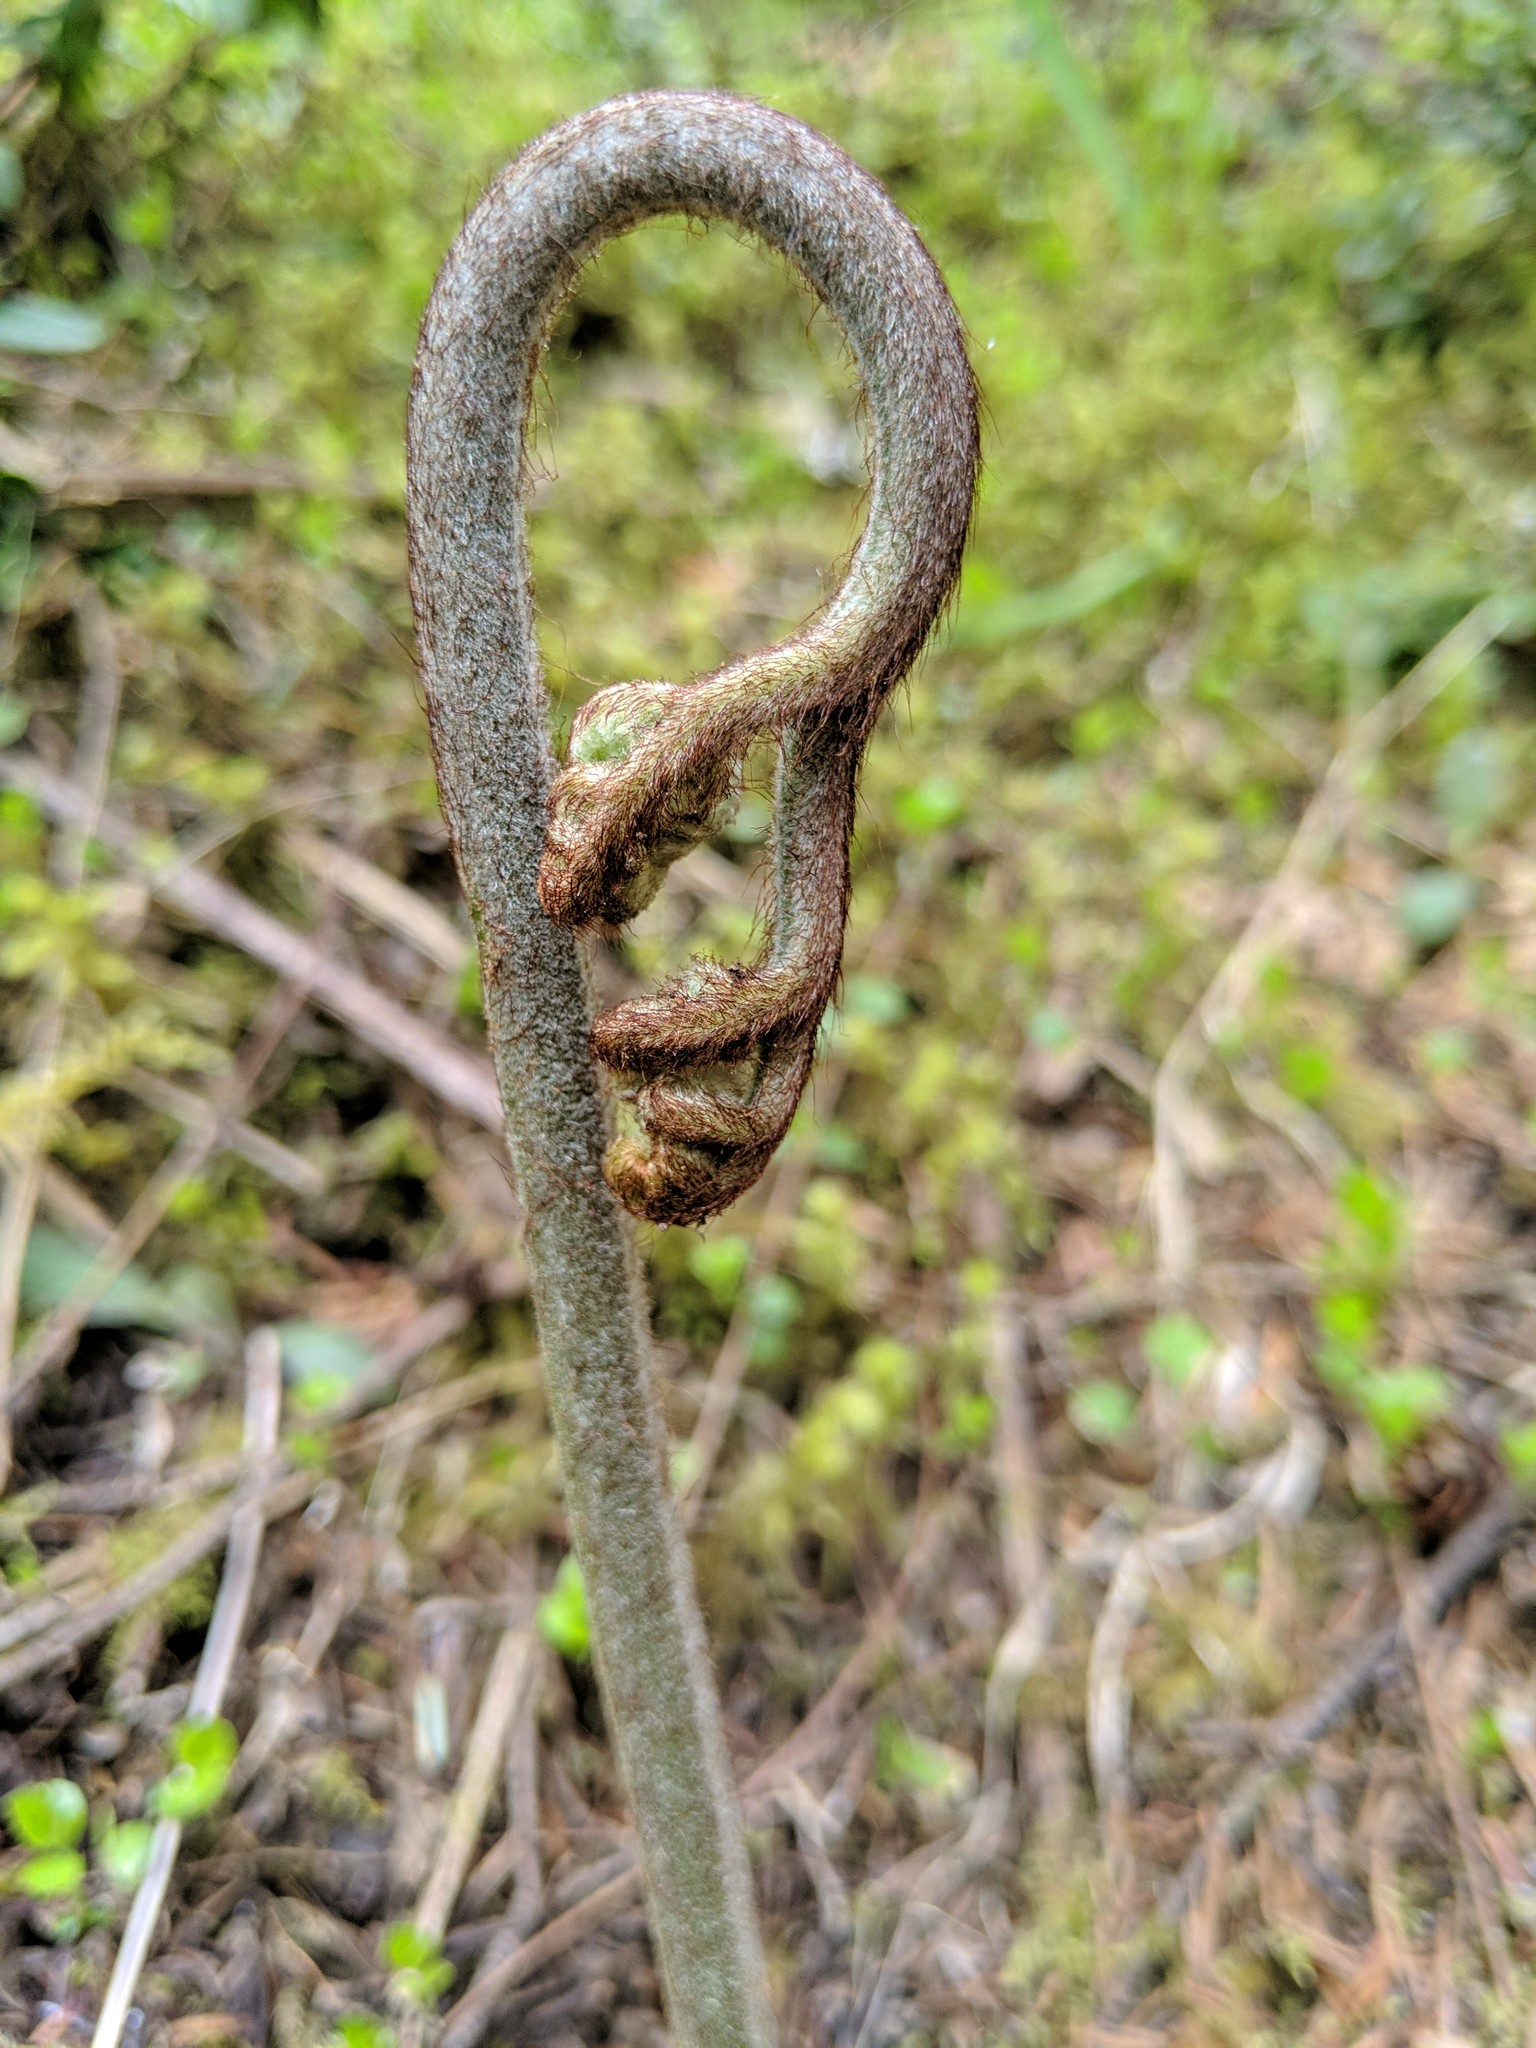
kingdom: Plantae
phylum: Tracheophyta
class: Polypodiopsida
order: Polypodiales
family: Dennstaedtiaceae
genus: Pteridium
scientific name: Pteridium aquilinum
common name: Bracken
